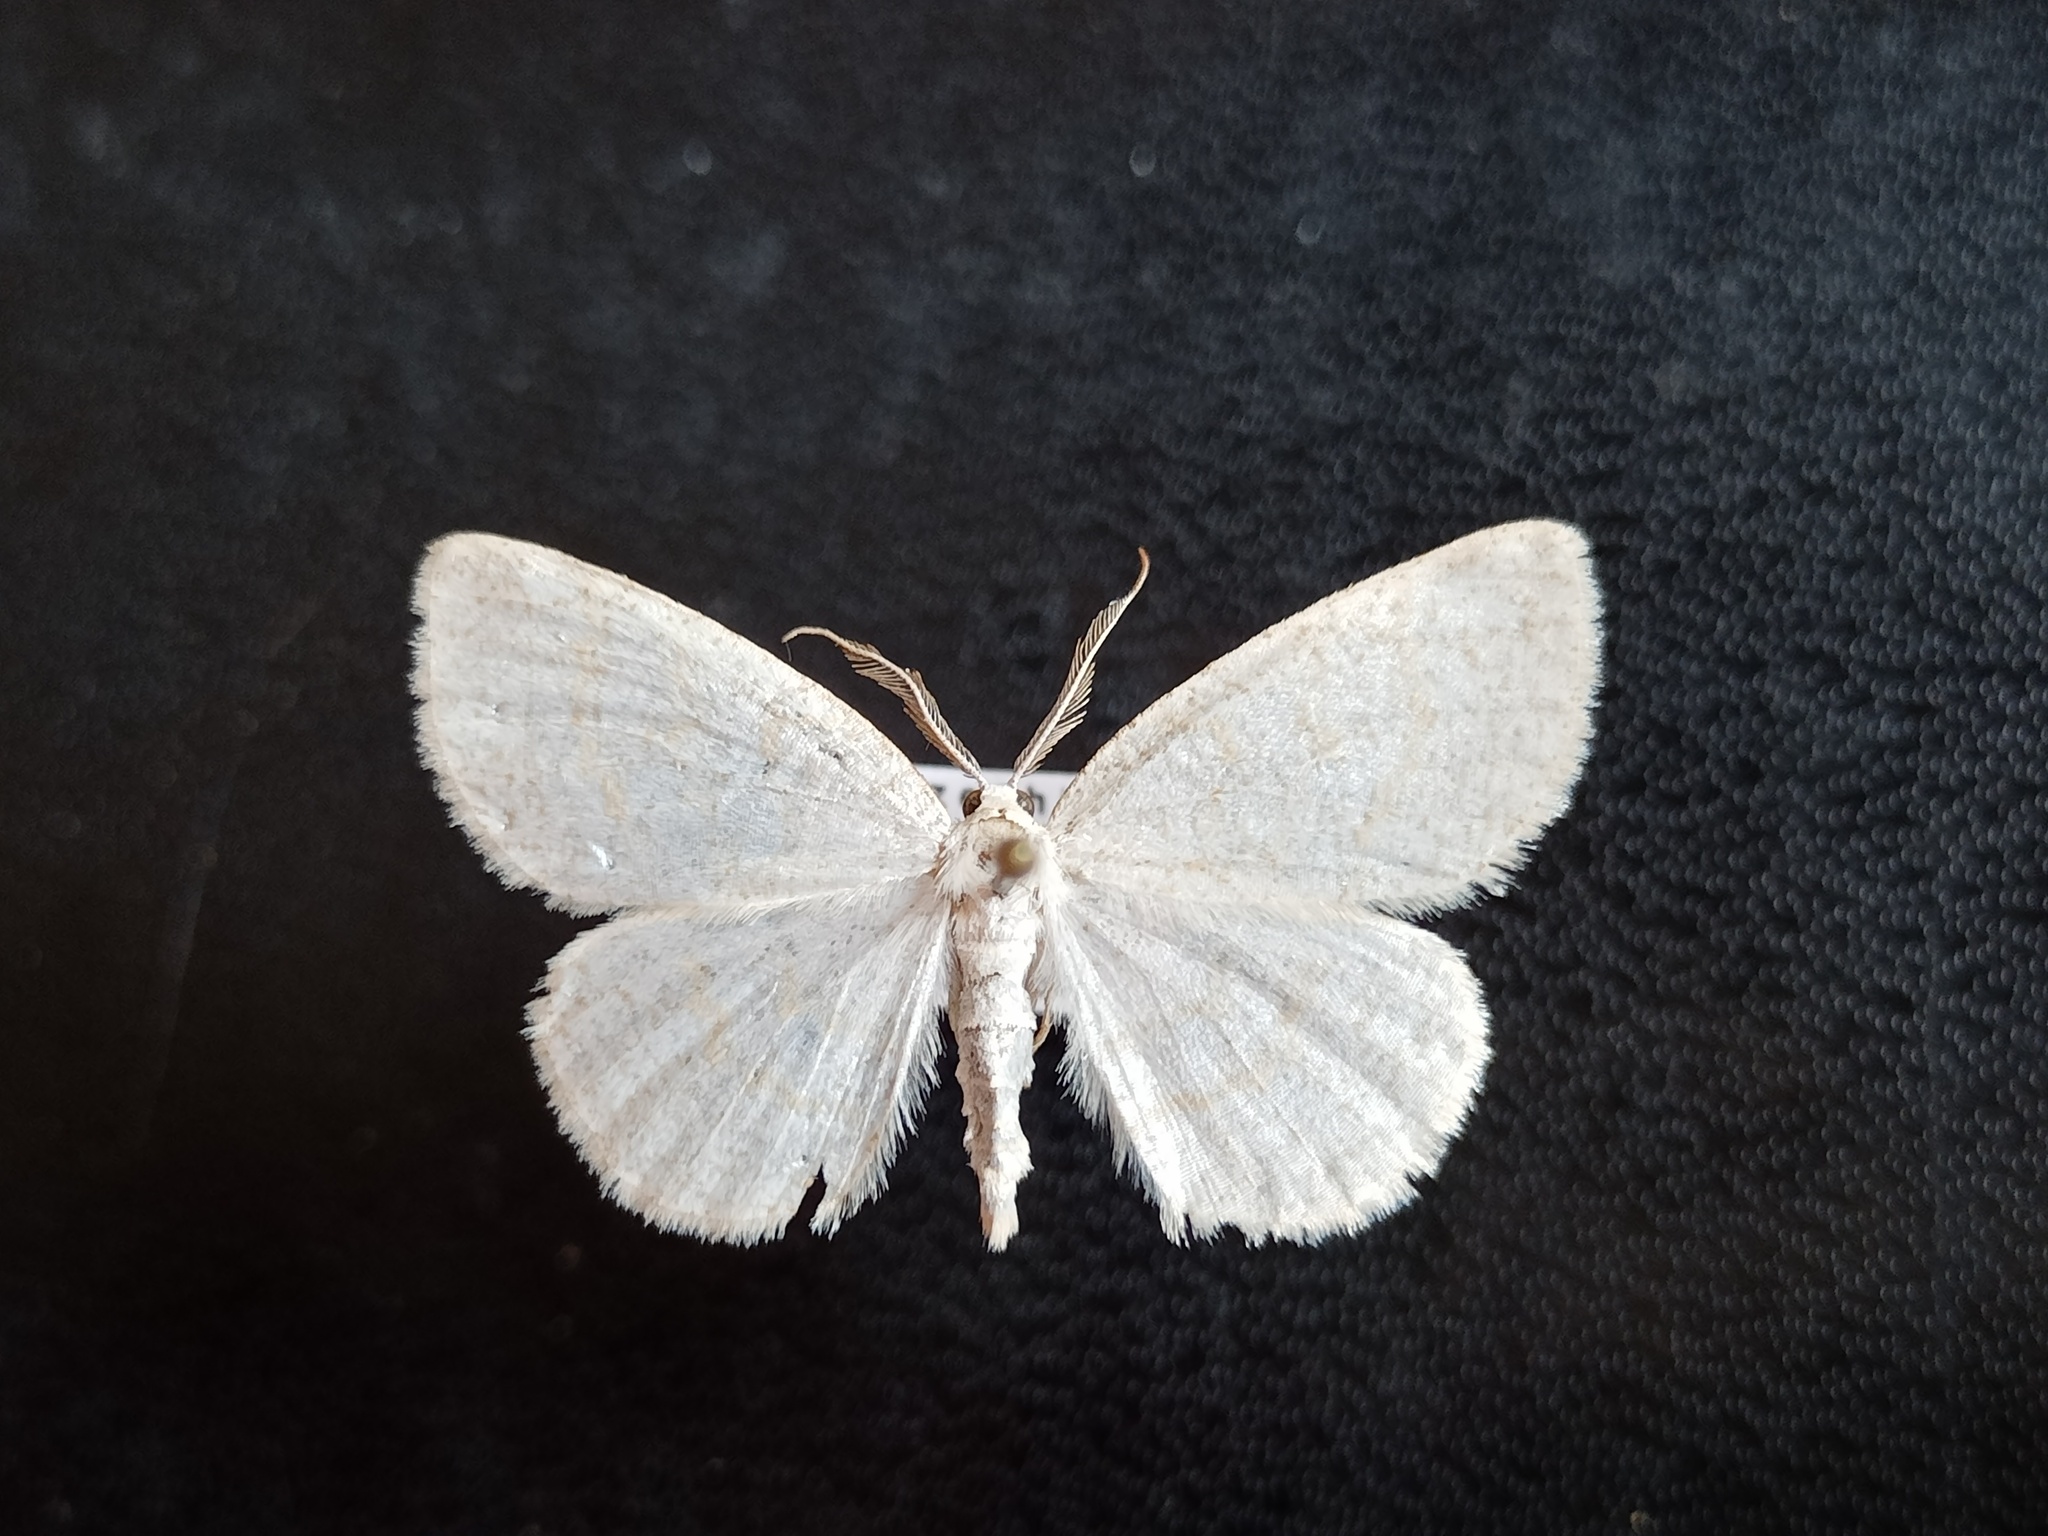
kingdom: Animalia
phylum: Arthropoda
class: Insecta
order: Lepidoptera
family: Geometridae
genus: Cabera
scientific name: Cabera exanthemata
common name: Common wave
